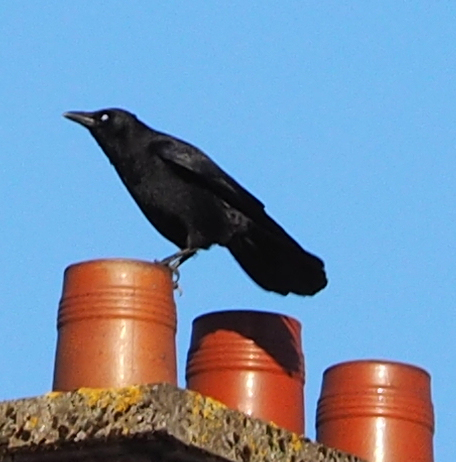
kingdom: Animalia
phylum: Chordata
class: Aves
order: Passeriformes
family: Corvidae
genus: Corvus
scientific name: Corvus corone
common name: Carrion crow
